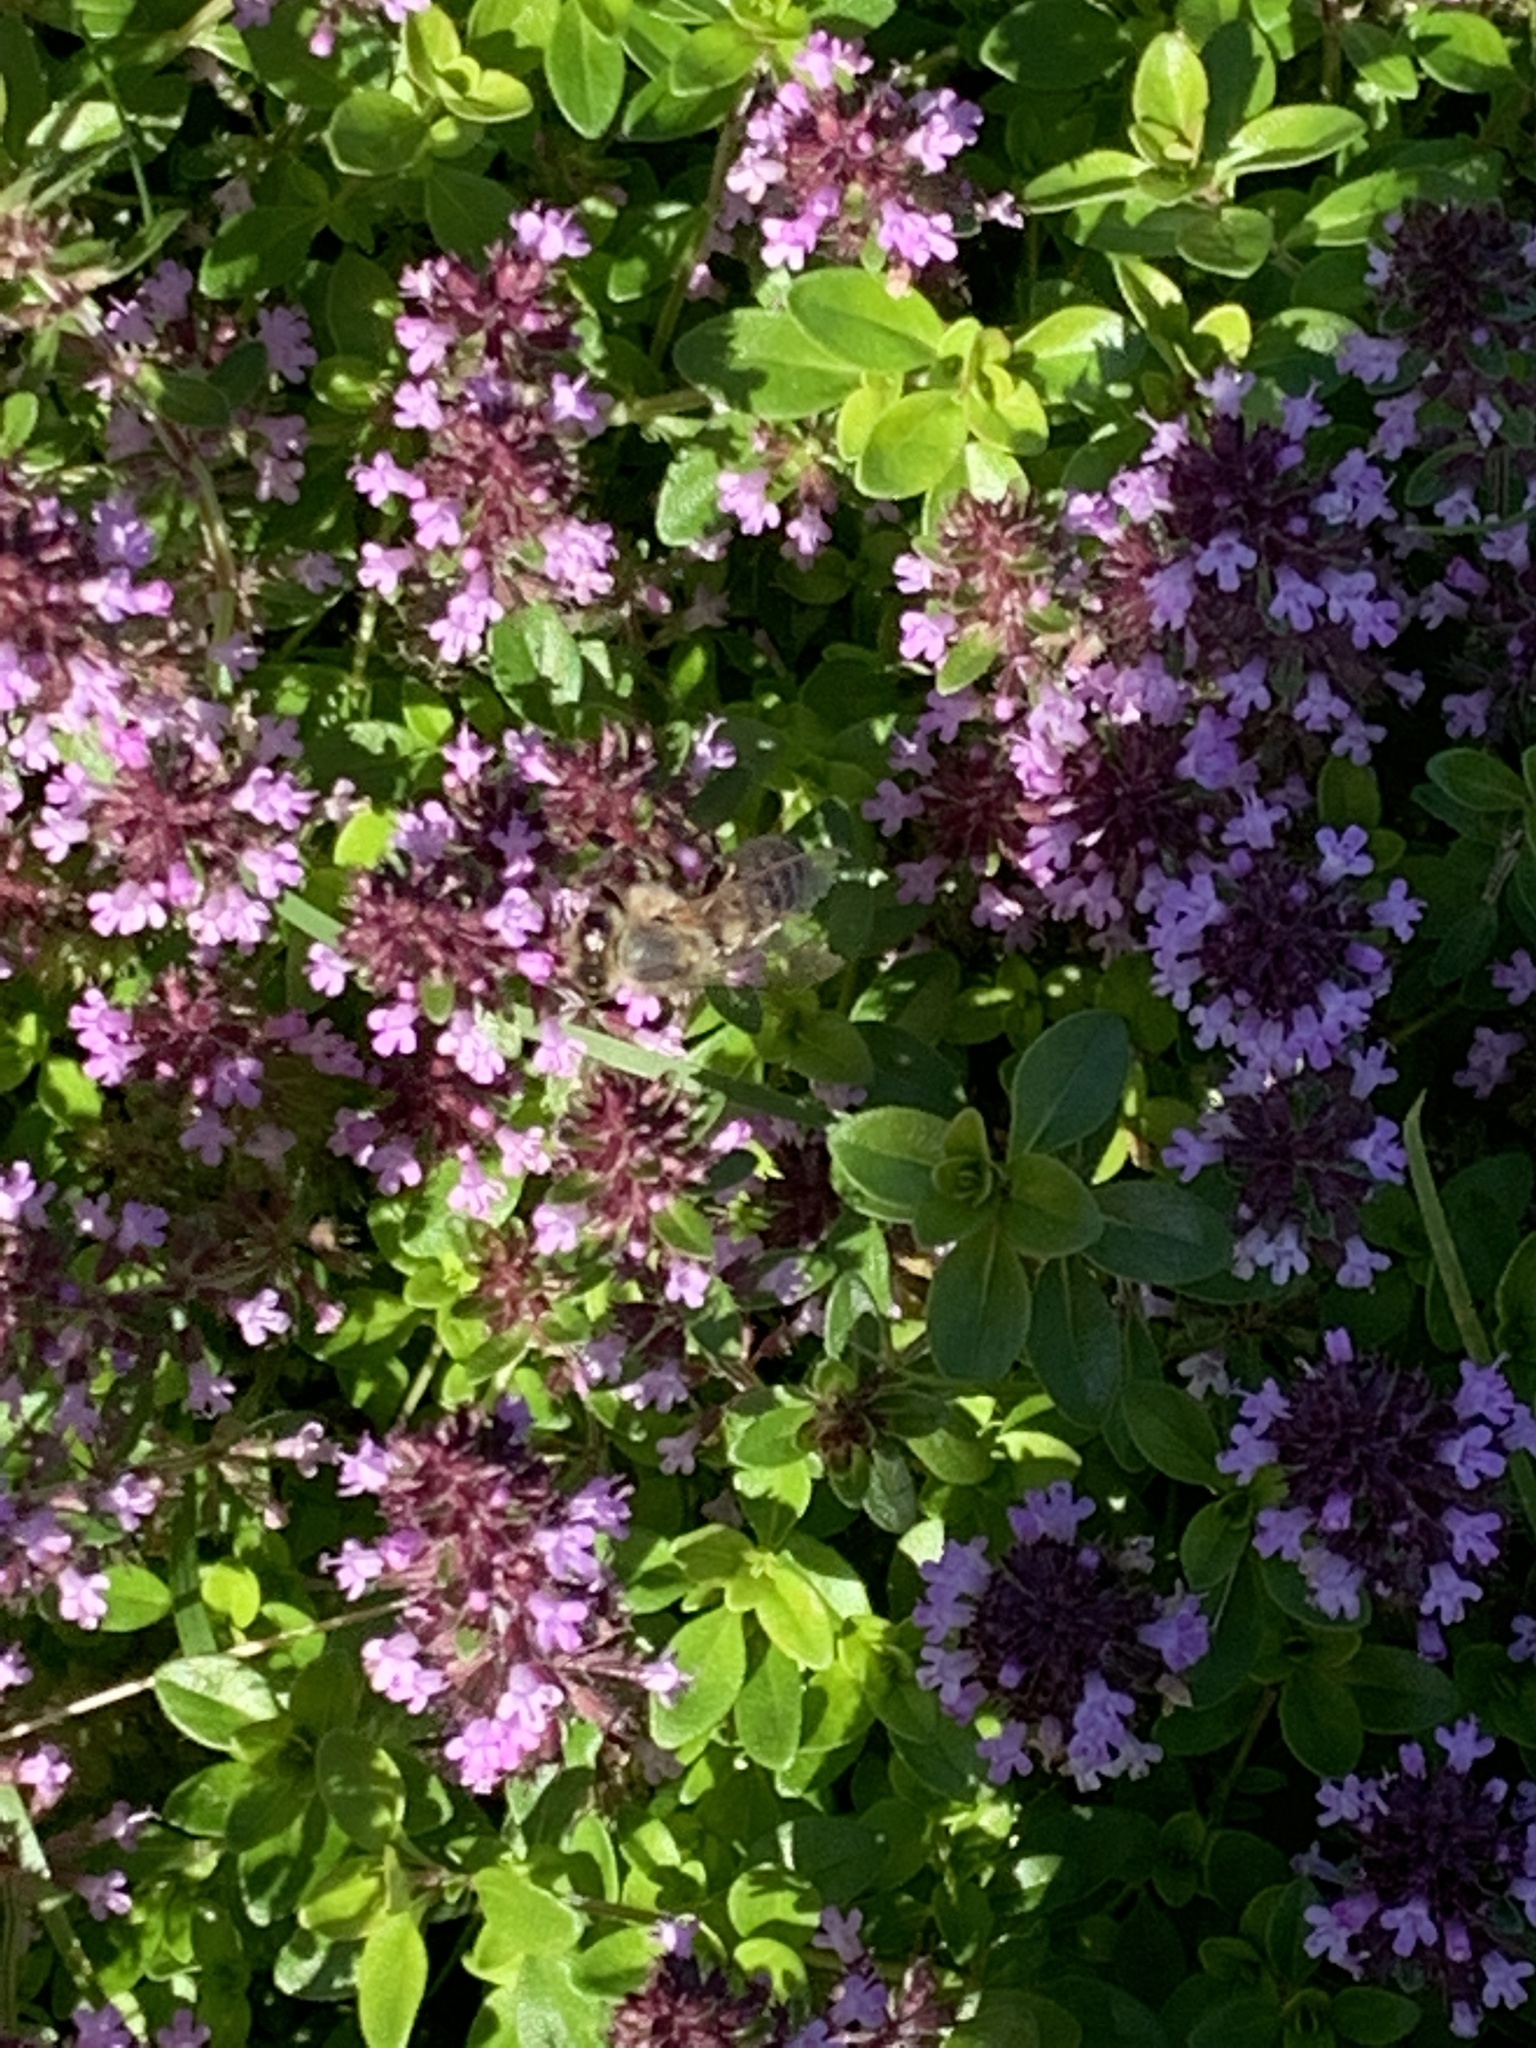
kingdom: Animalia
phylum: Arthropoda
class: Insecta
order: Hymenoptera
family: Apidae
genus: Apis
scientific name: Apis mellifera
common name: Honey bee
